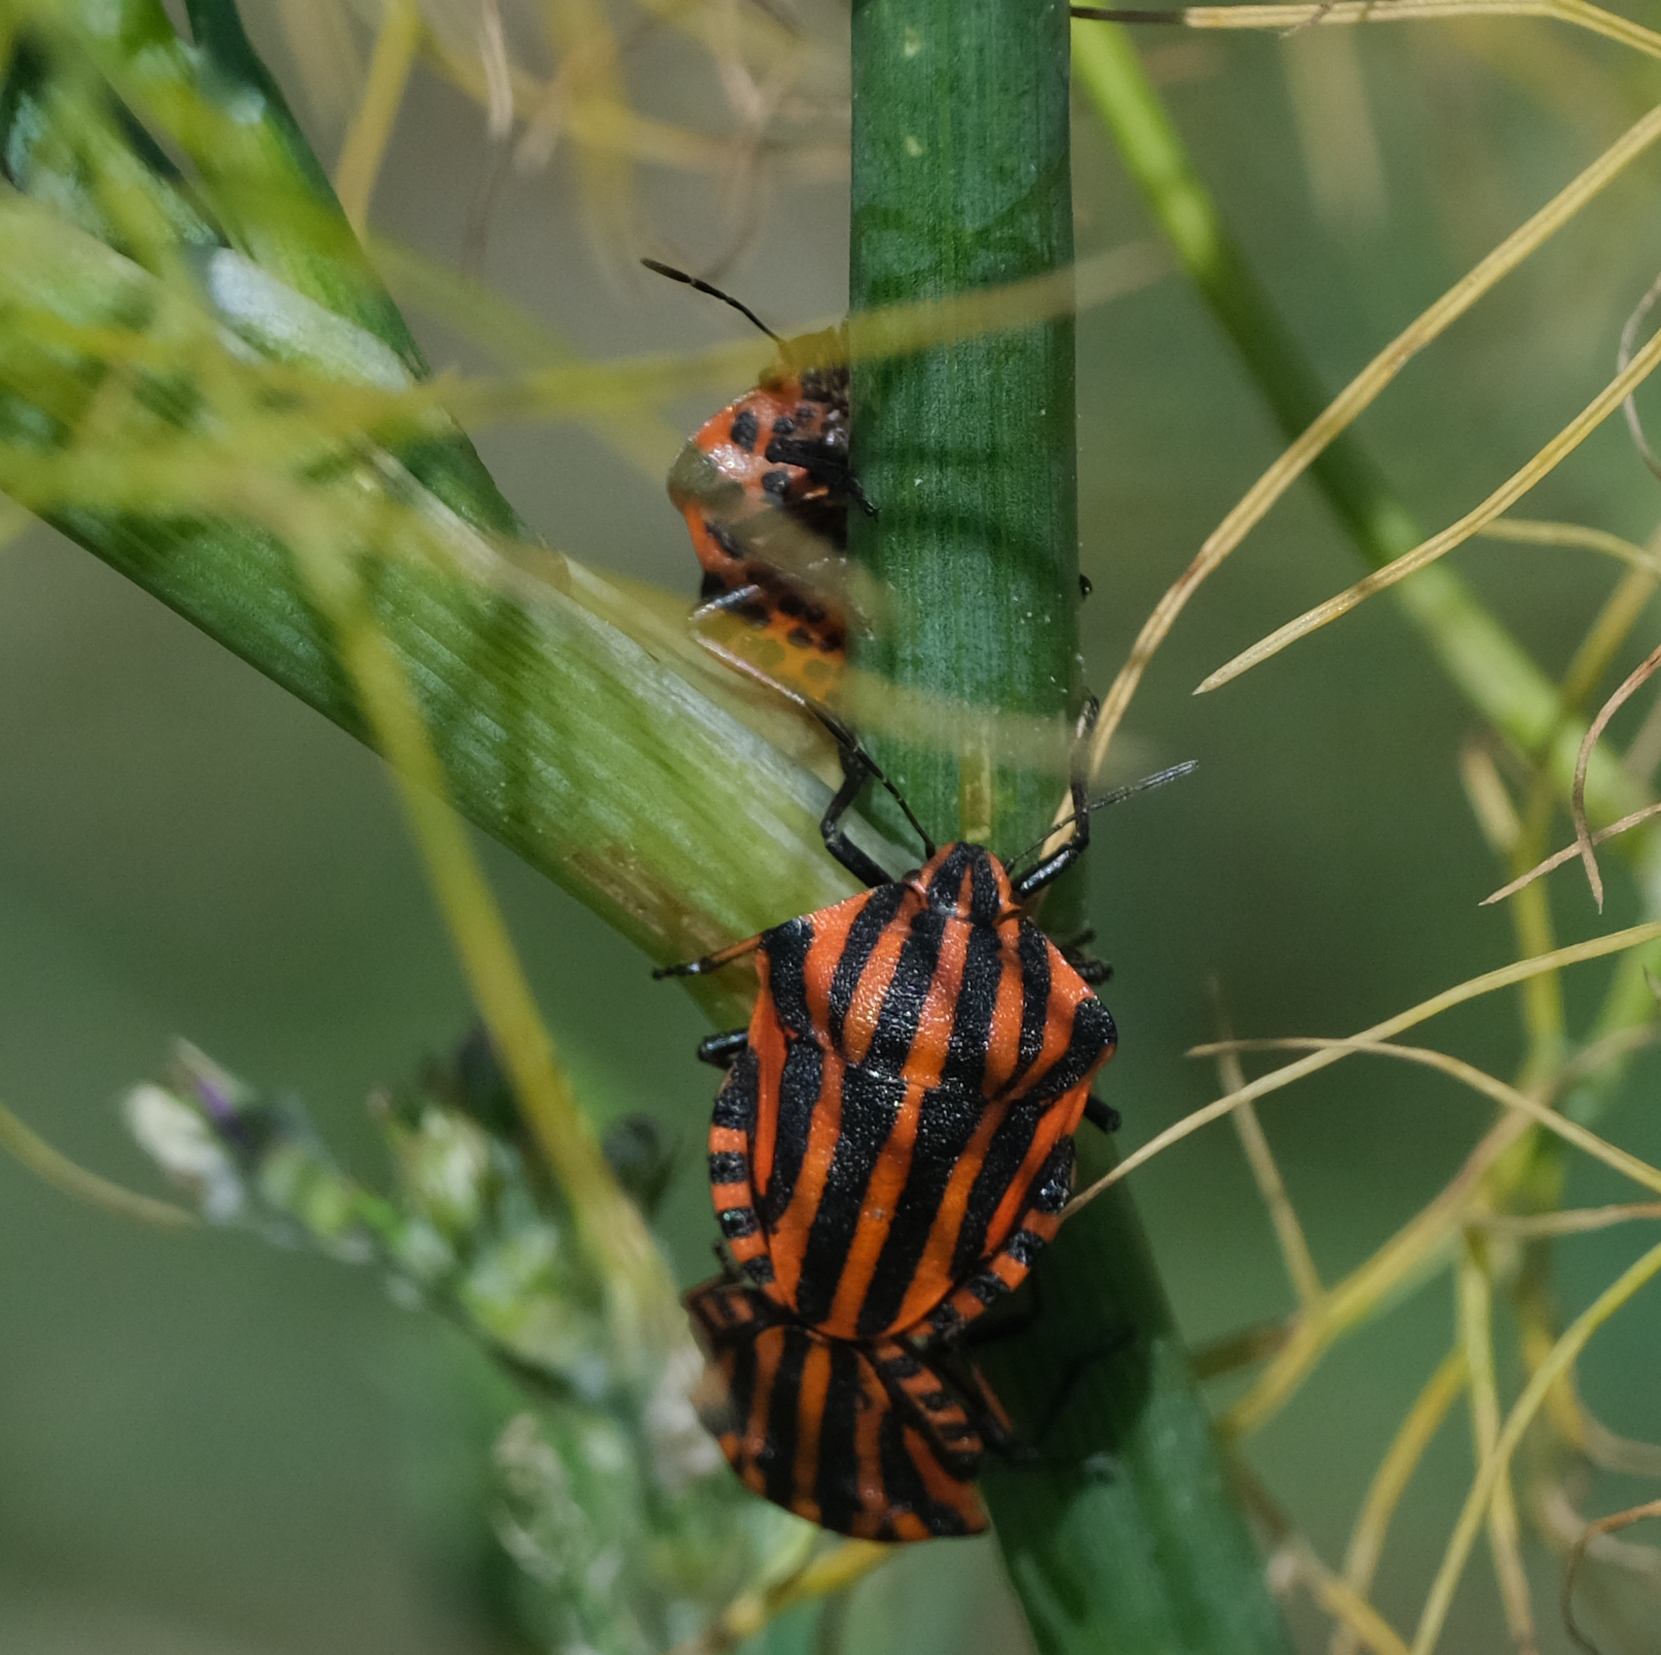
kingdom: Animalia
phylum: Arthropoda
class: Insecta
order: Hemiptera
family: Pentatomidae
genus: Graphosoma
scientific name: Graphosoma italicum
